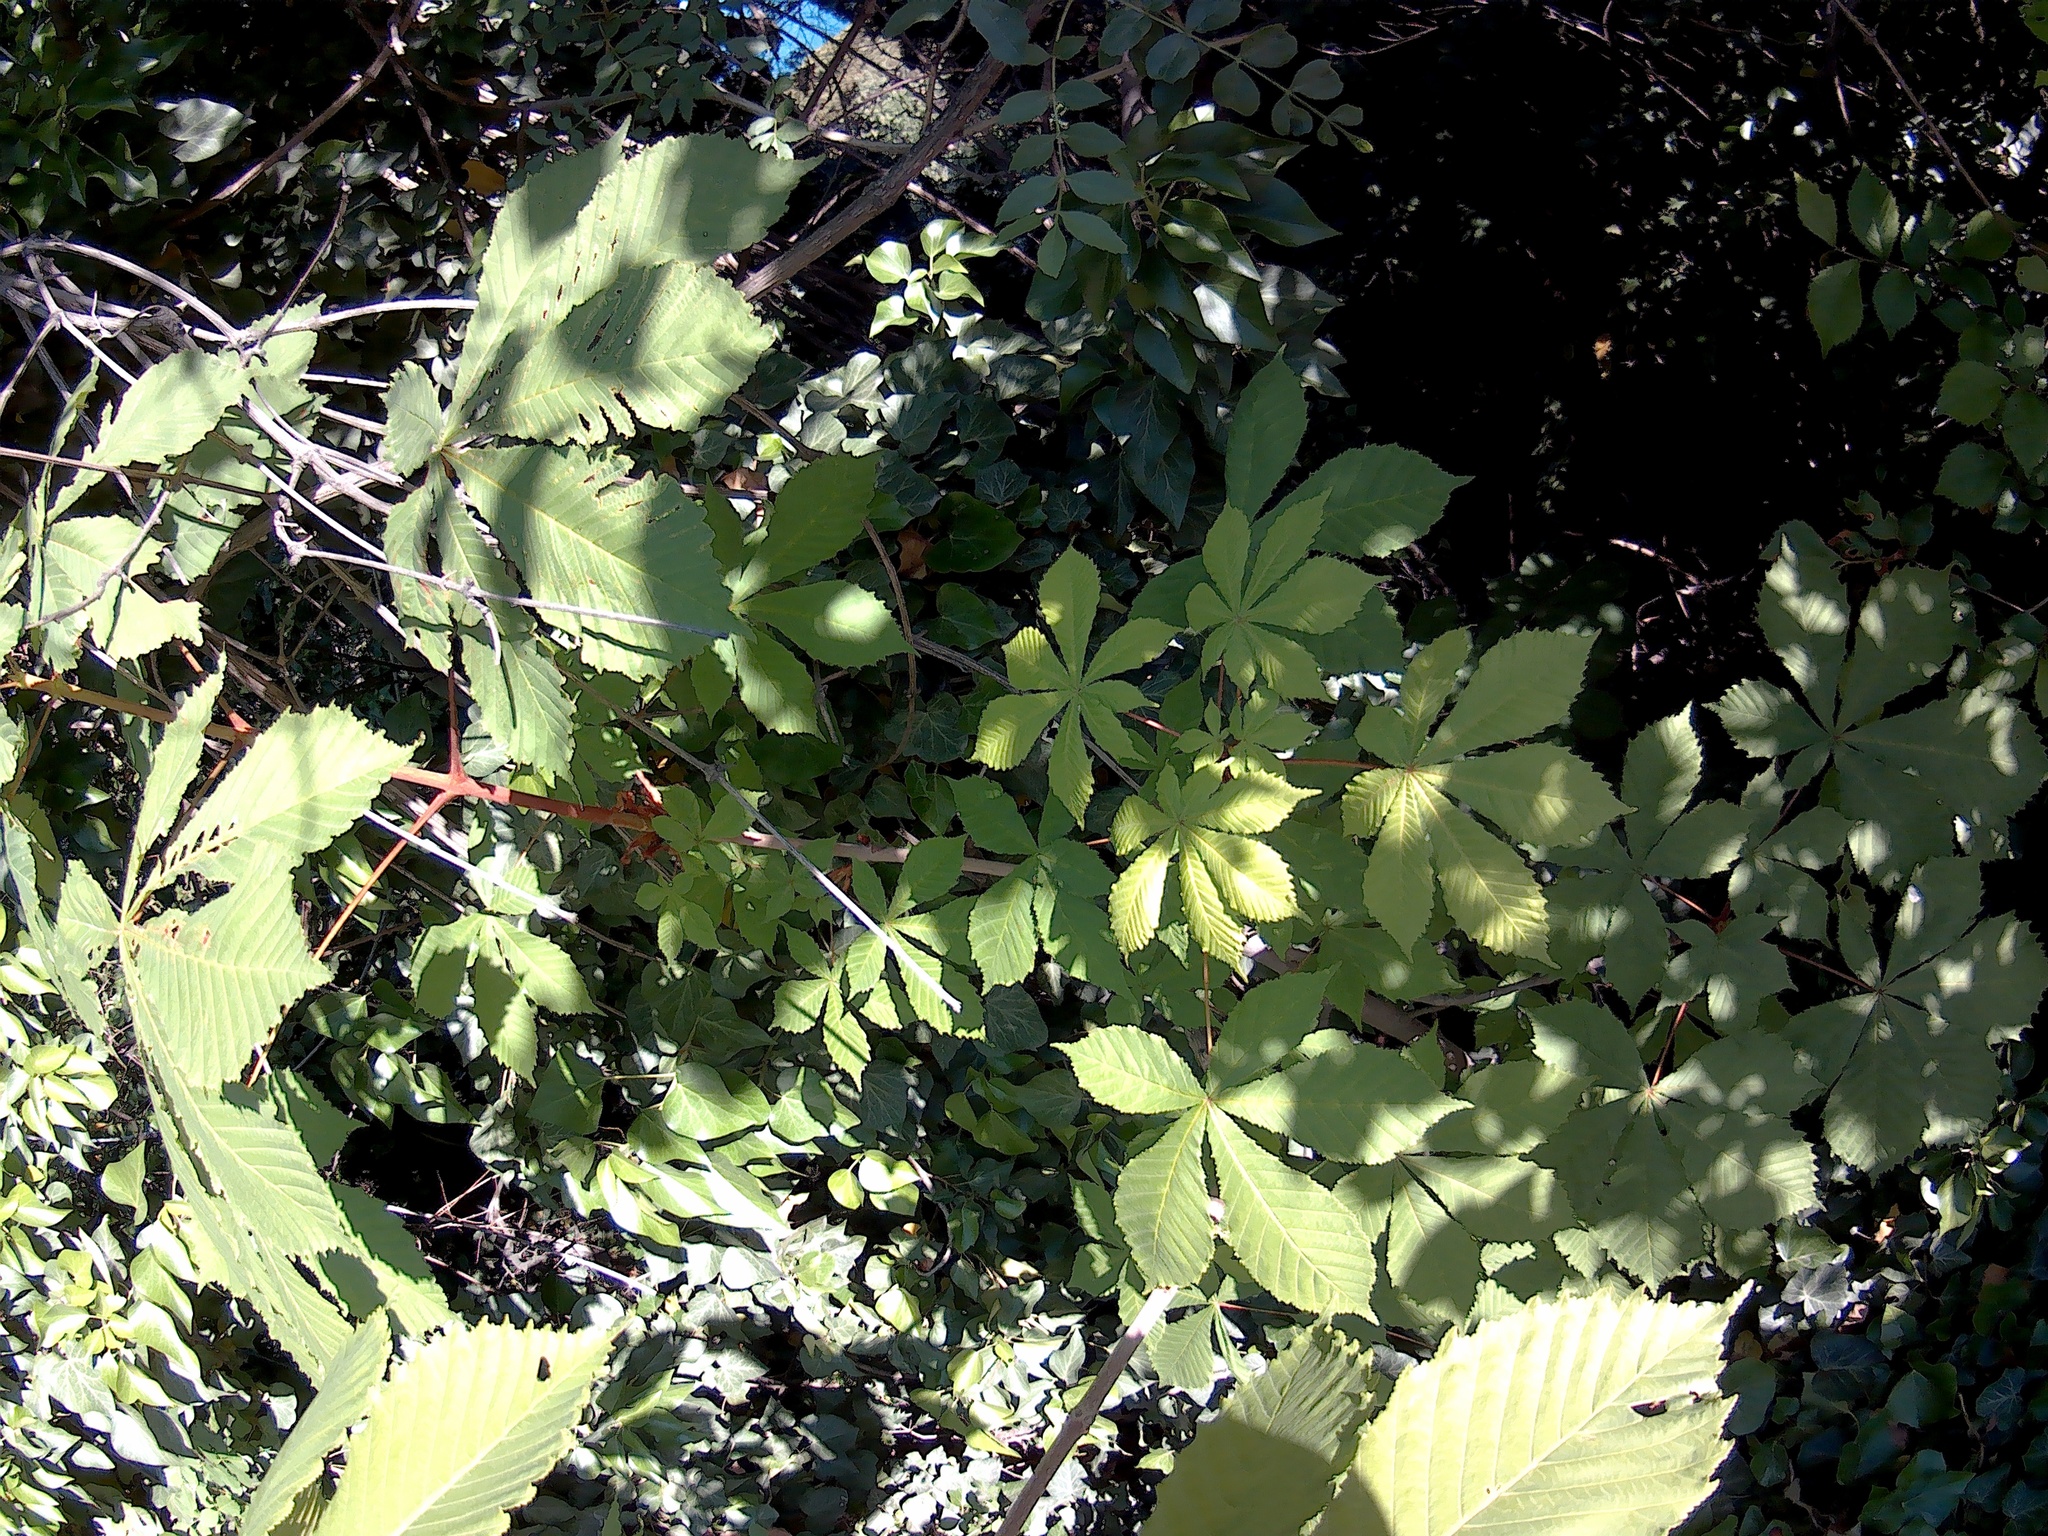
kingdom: Plantae
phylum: Tracheophyta
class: Magnoliopsida
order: Sapindales
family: Sapindaceae
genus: Aesculus
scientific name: Aesculus hippocastanum
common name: Horse-chestnut
